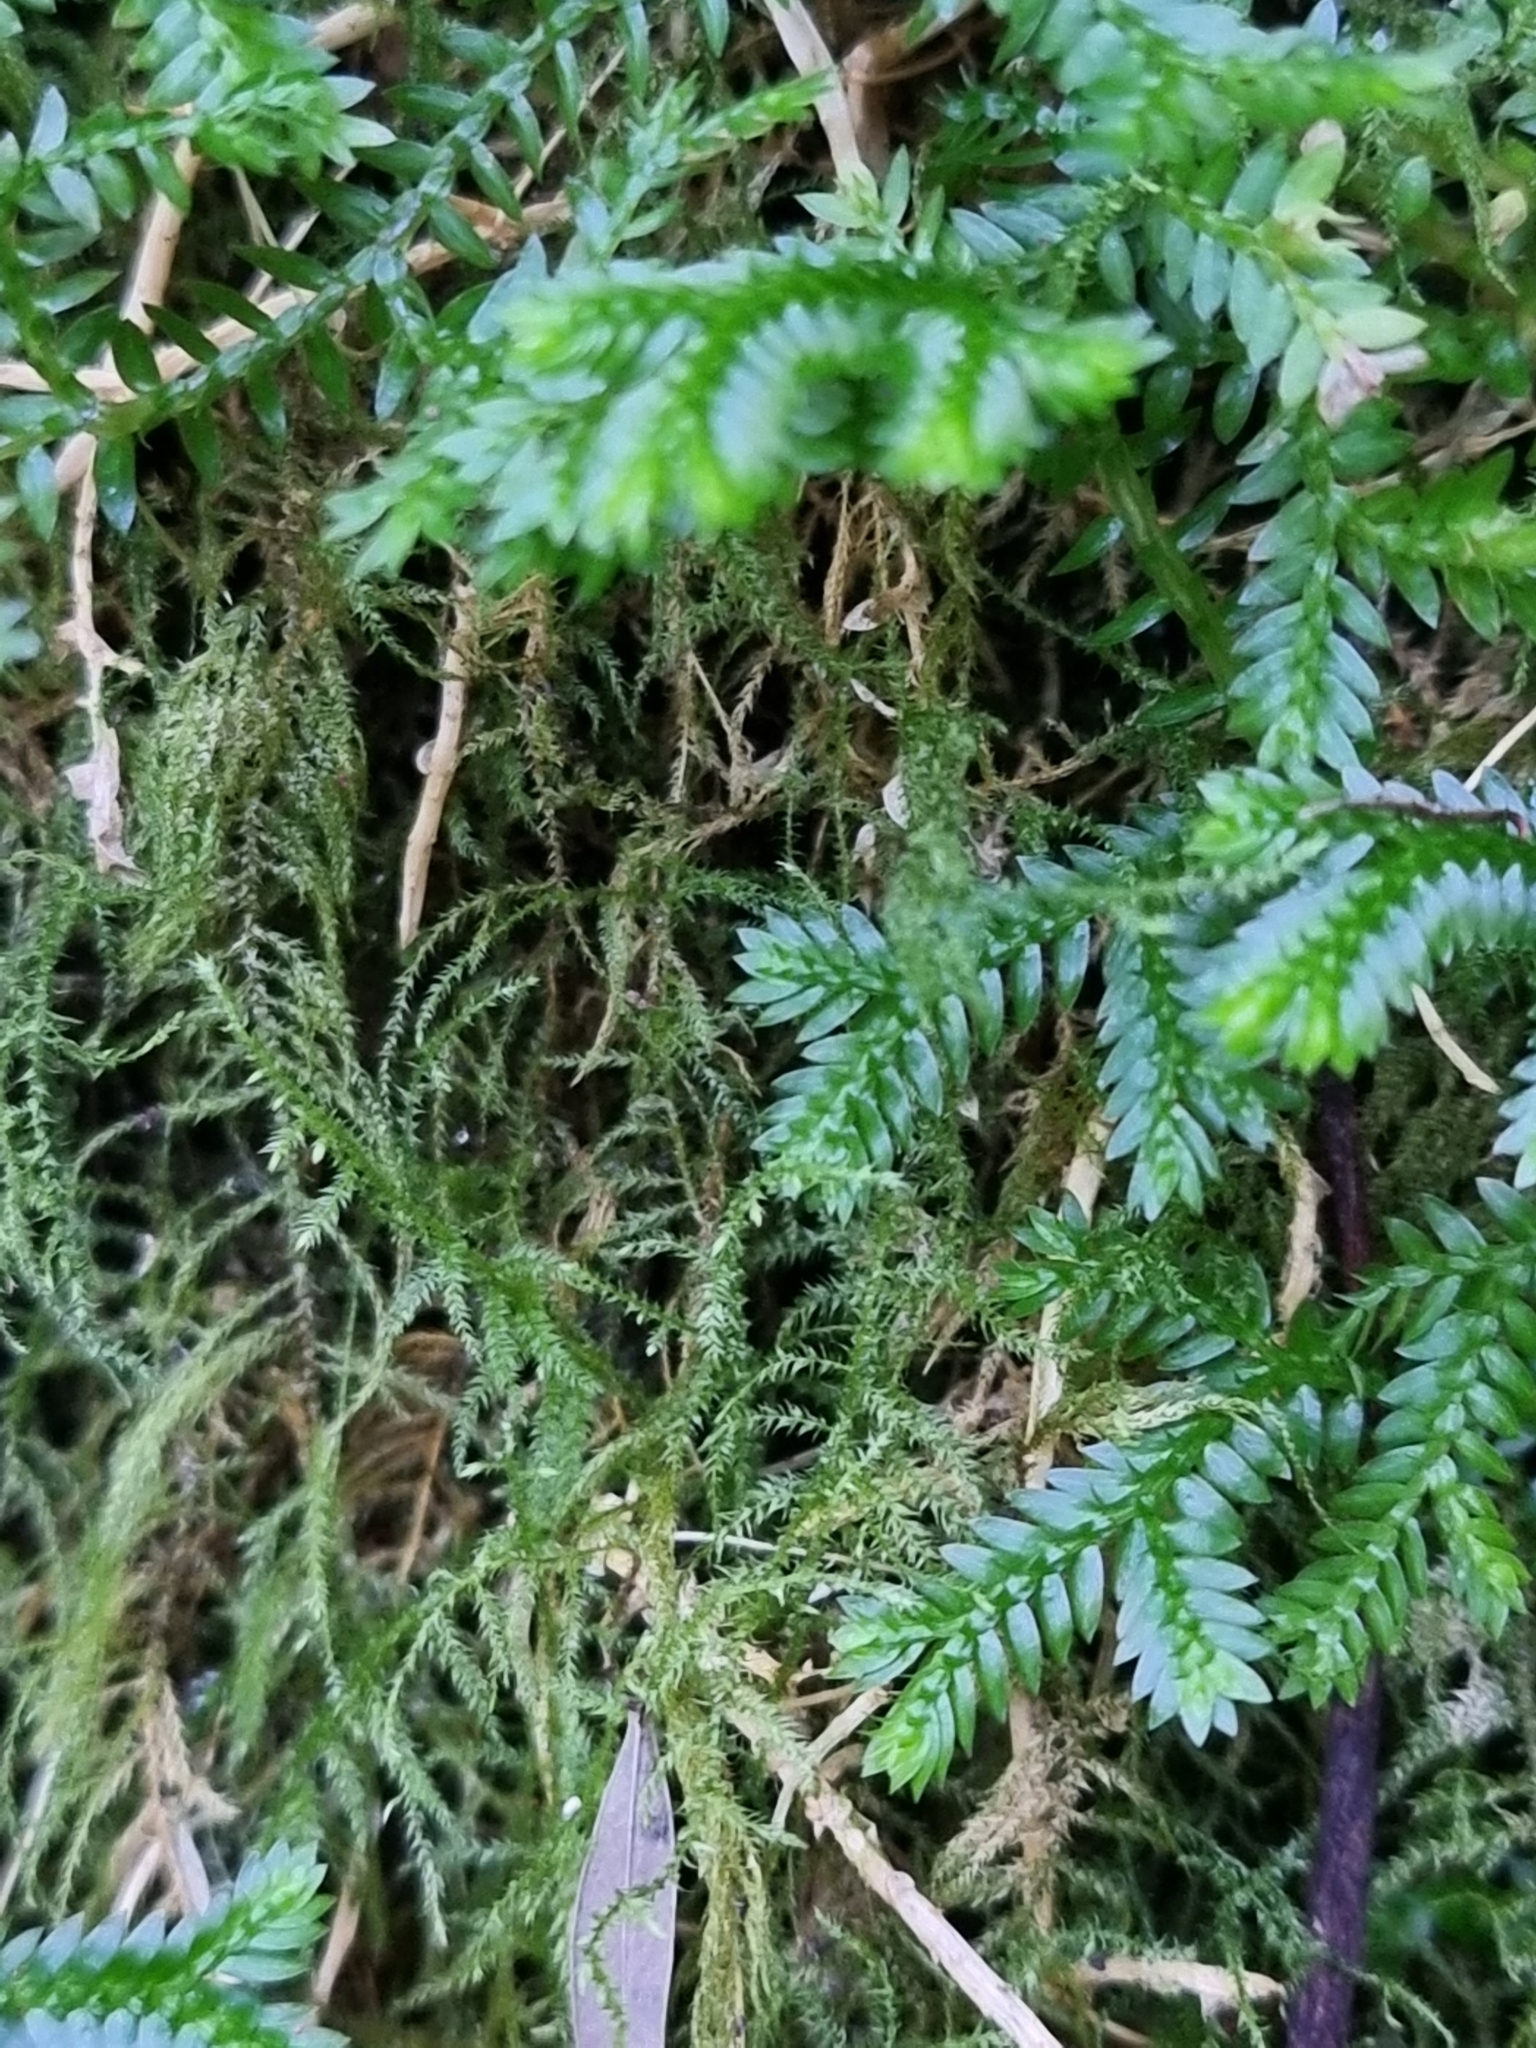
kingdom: Plantae
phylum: Tracheophyta
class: Lycopodiopsida
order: Selaginellales
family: Selaginellaceae
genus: Selaginella
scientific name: Selaginella kraussiana
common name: Krauss' spikemoss
